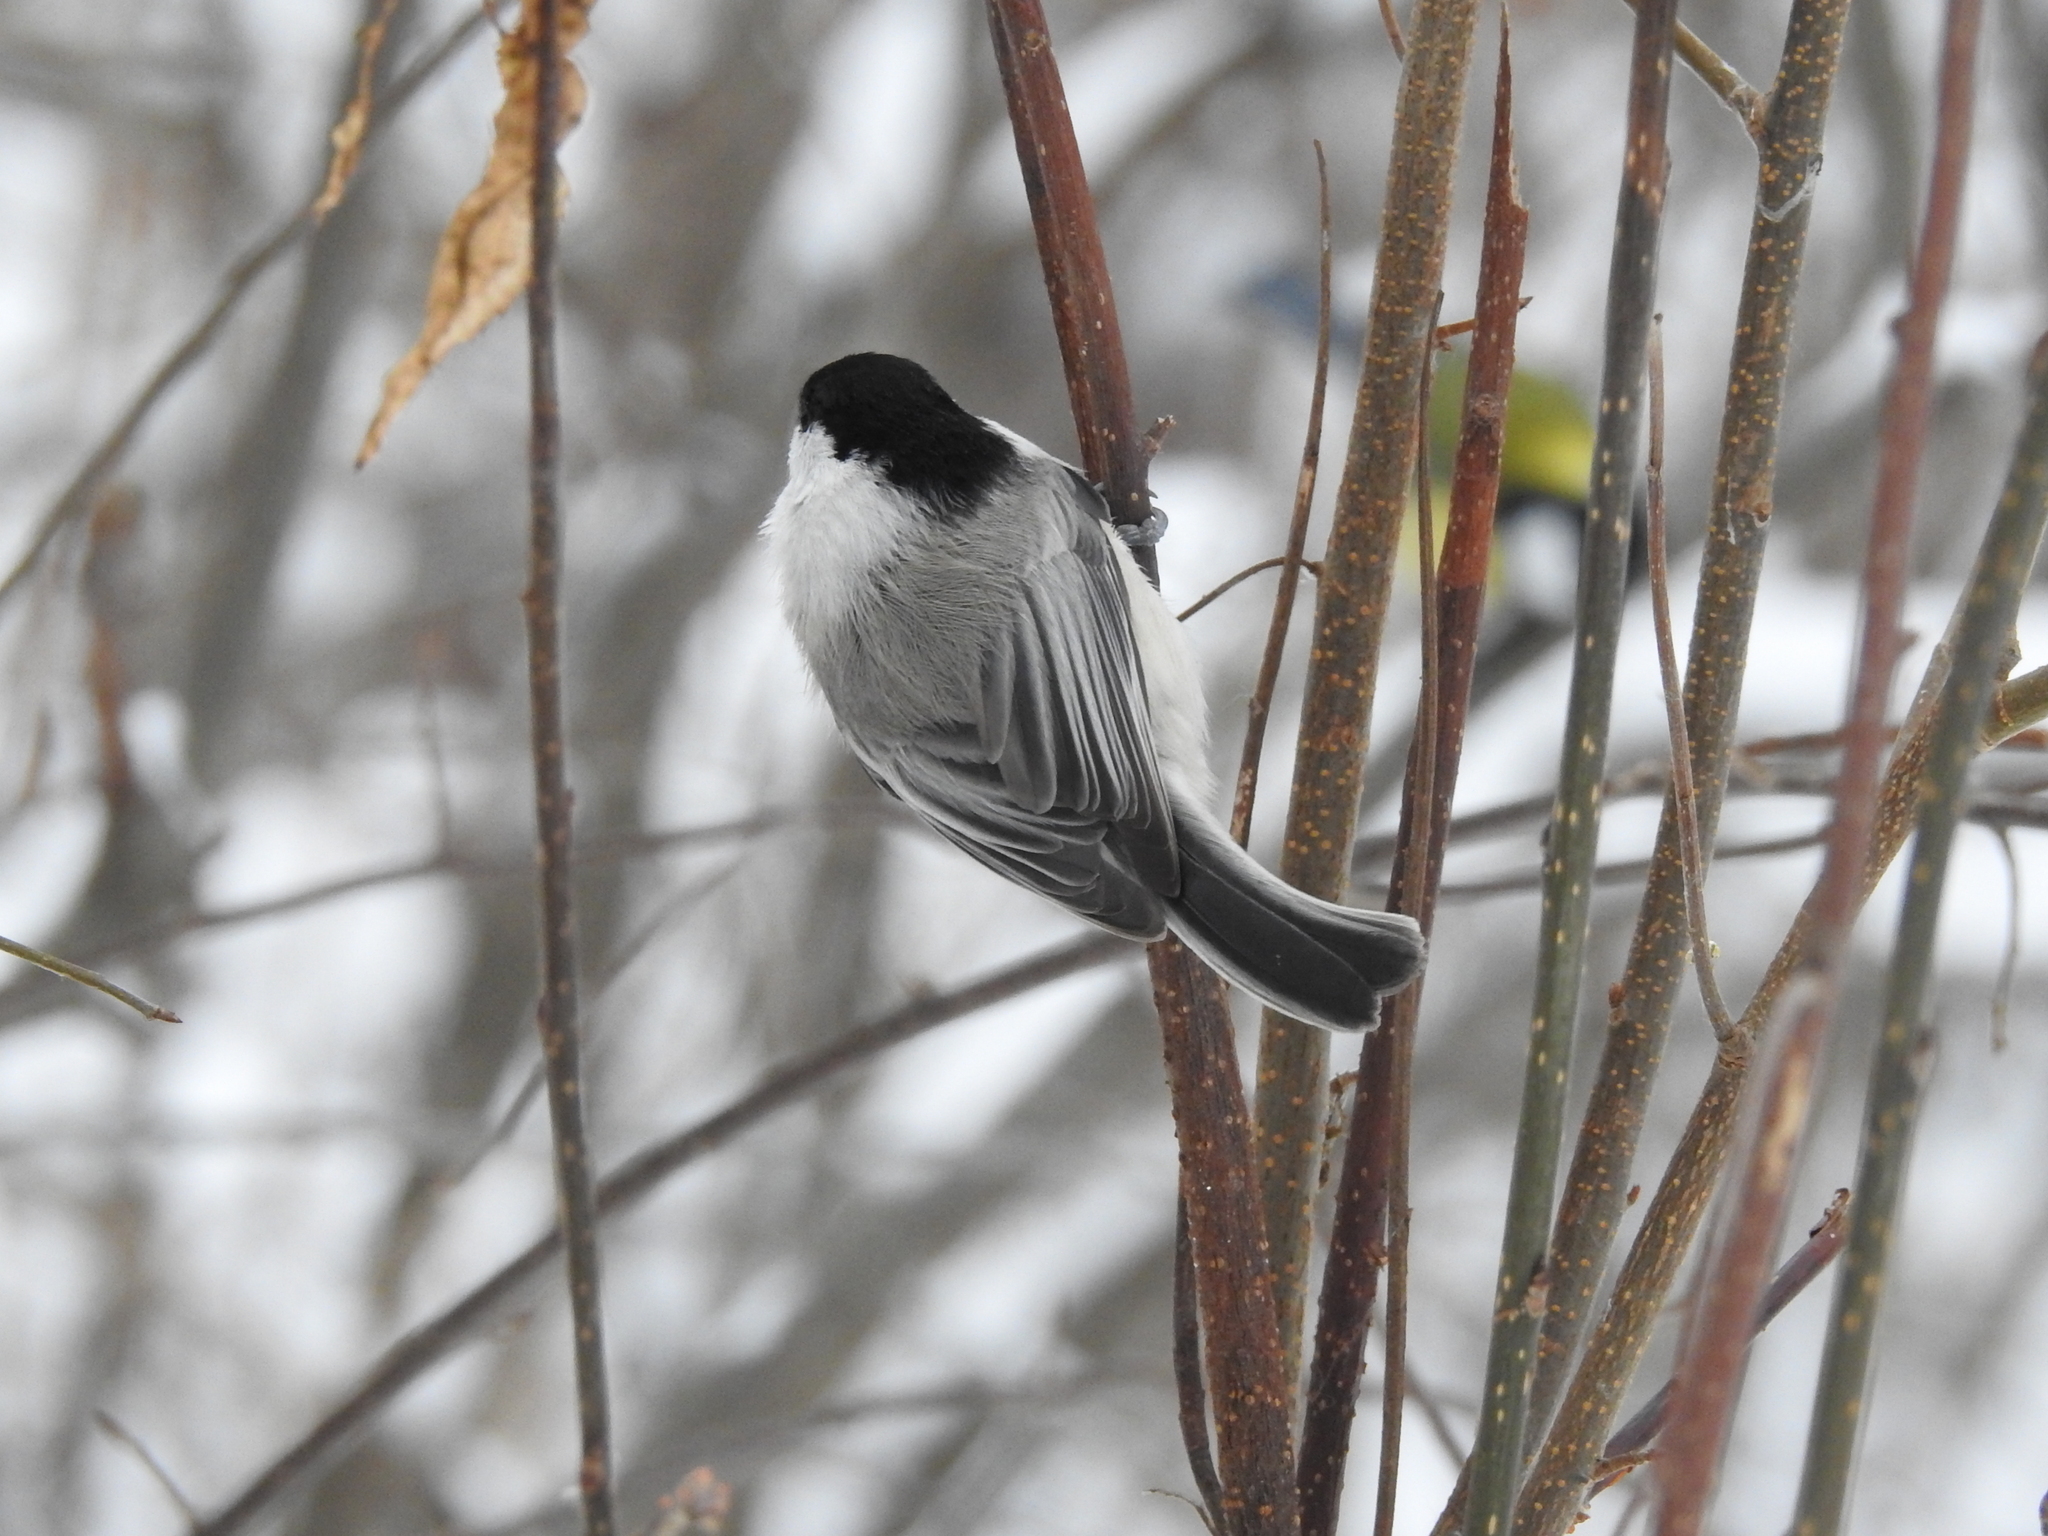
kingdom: Animalia
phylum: Chordata
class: Aves
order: Passeriformes
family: Paridae
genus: Poecile
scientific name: Poecile montanus
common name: Willow tit
